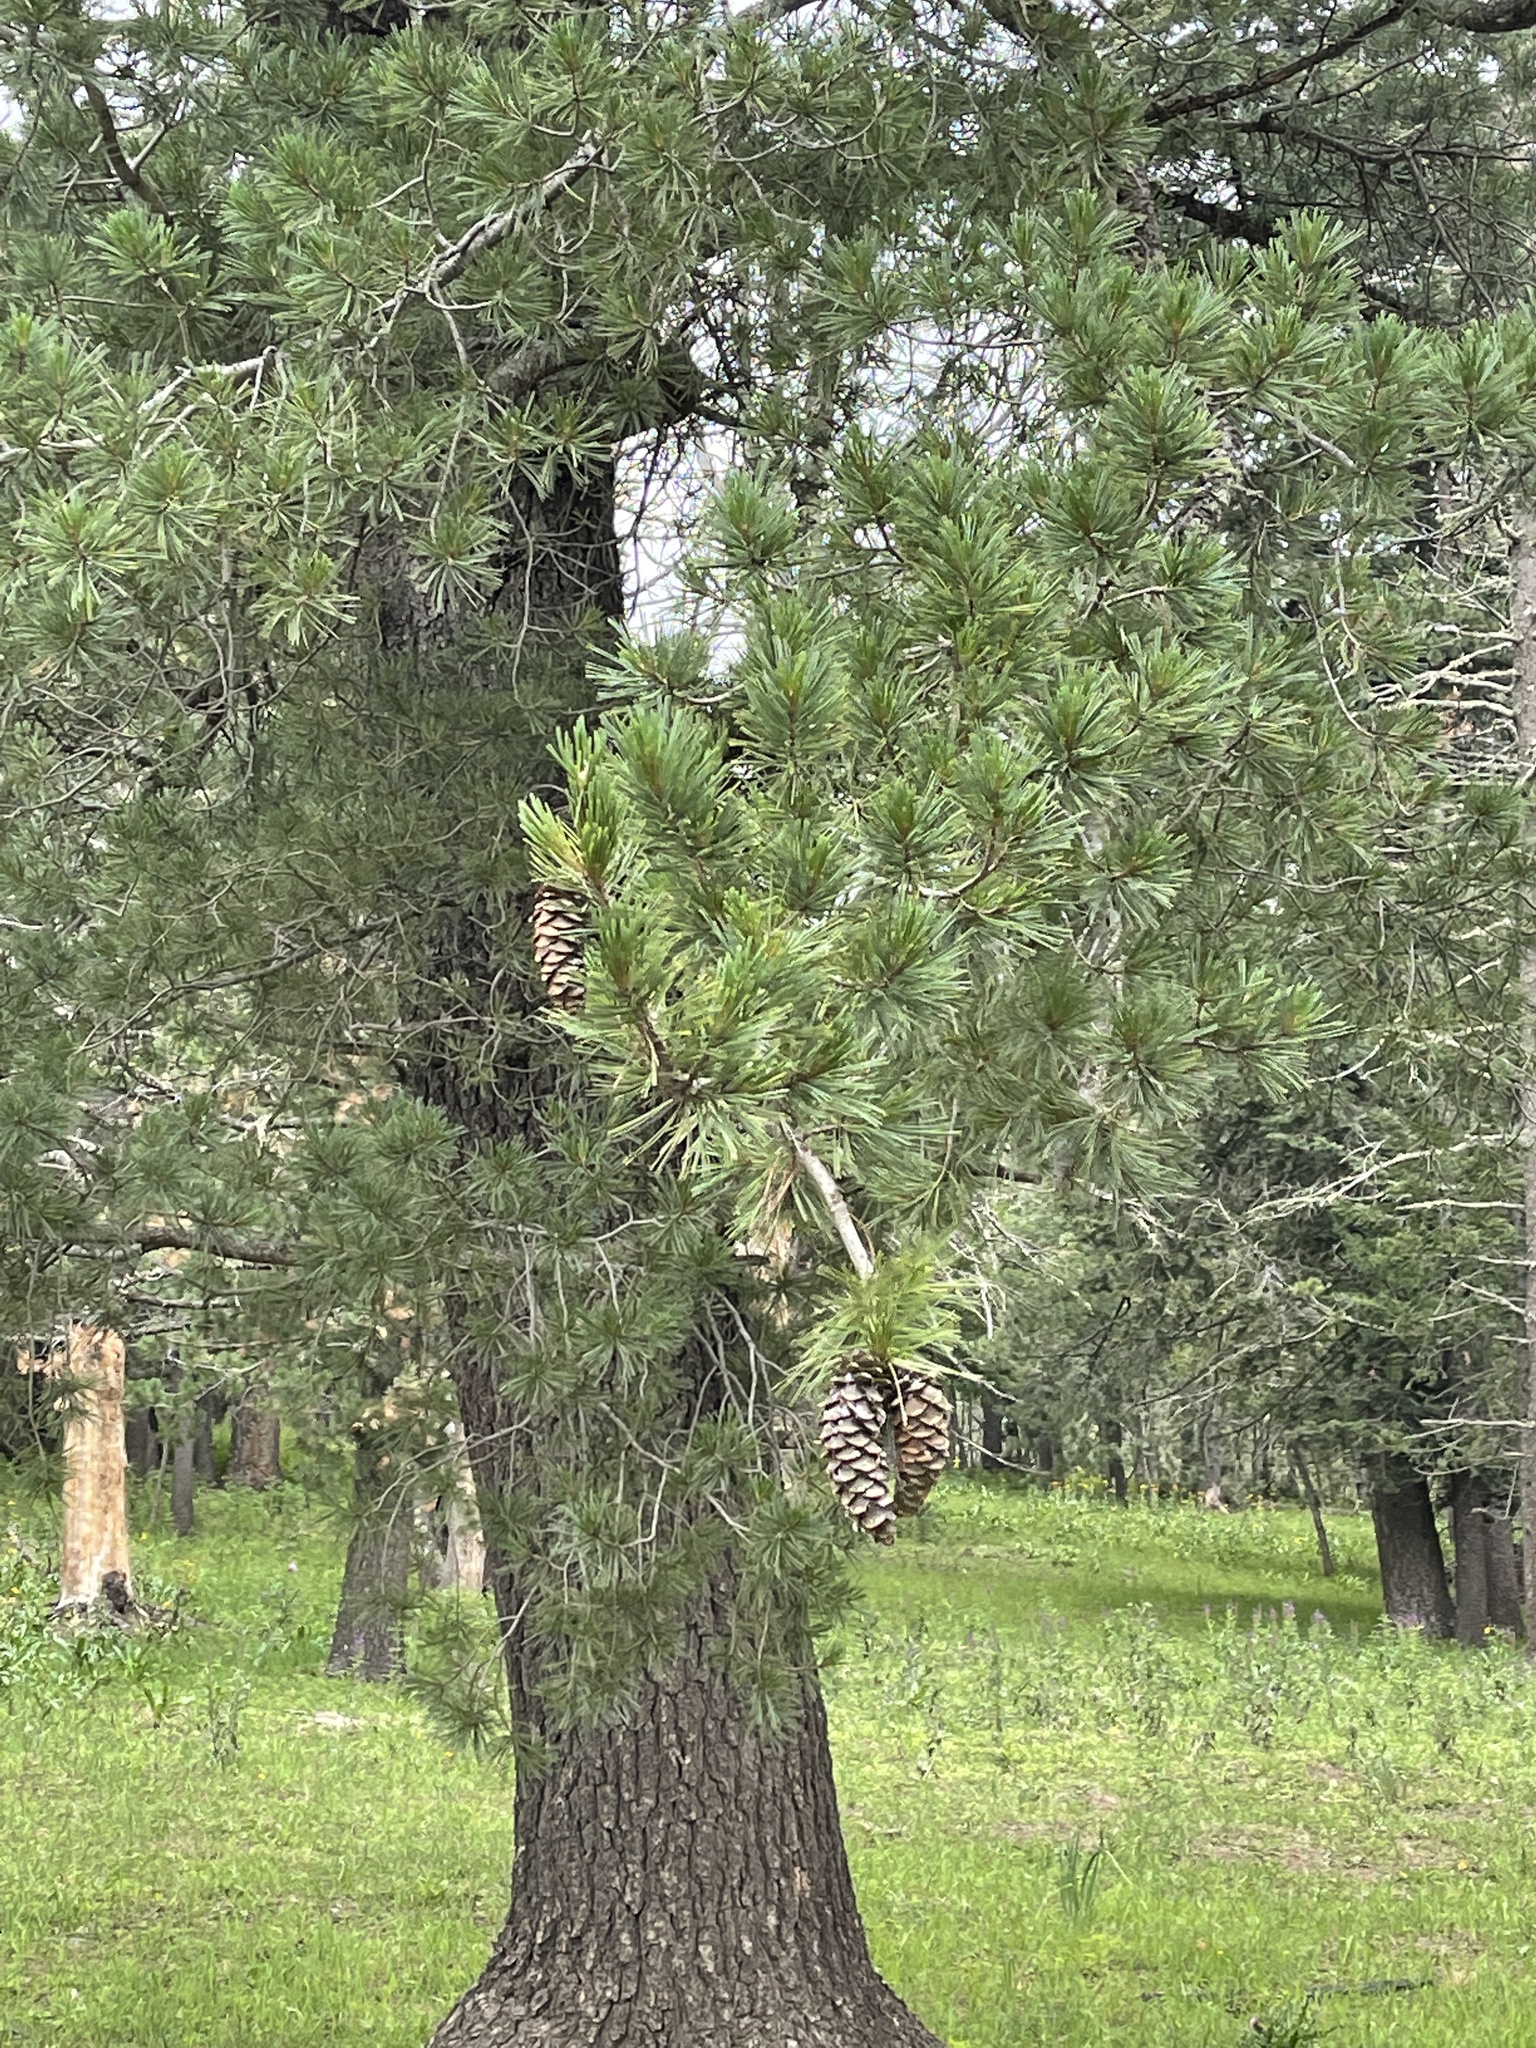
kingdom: Plantae
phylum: Tracheophyta
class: Pinopsida
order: Pinales
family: Pinaceae
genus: Pinus
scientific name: Pinus strobiformis
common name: Southwestern white pine
